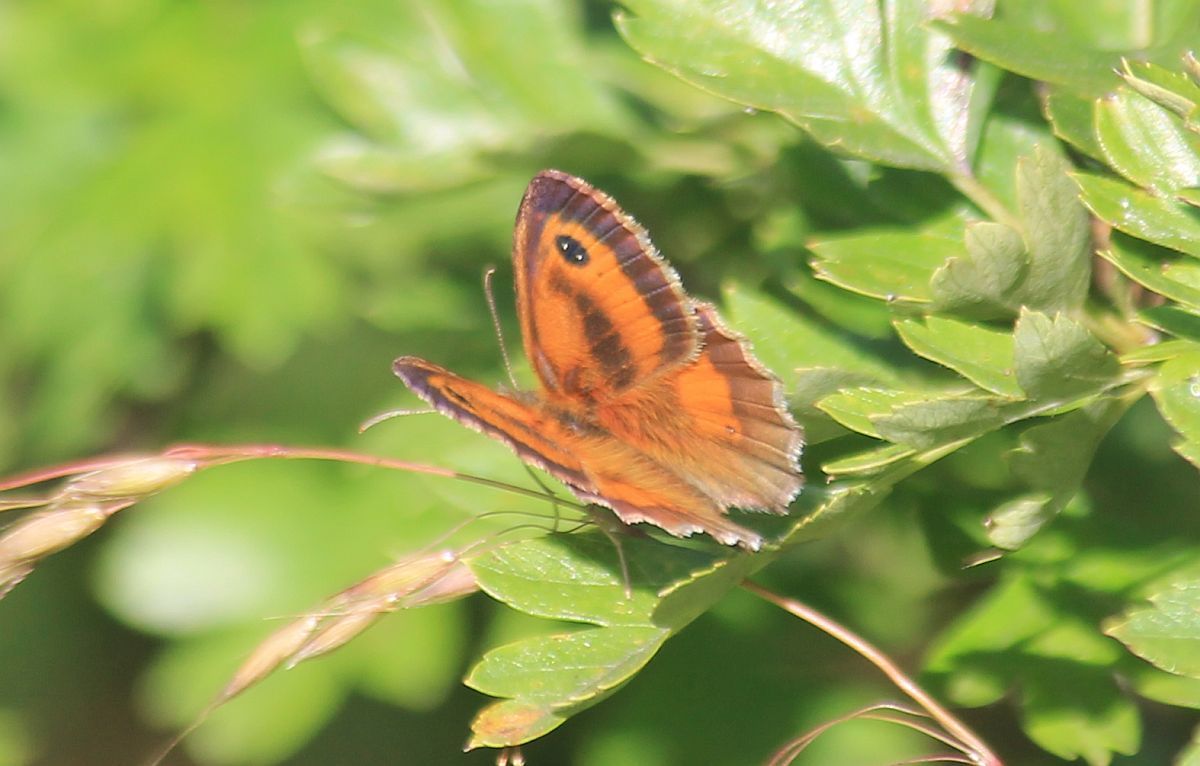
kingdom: Animalia
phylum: Arthropoda
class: Insecta
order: Lepidoptera
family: Nymphalidae
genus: Pyronia
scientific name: Pyronia tithonus
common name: Gatekeeper
